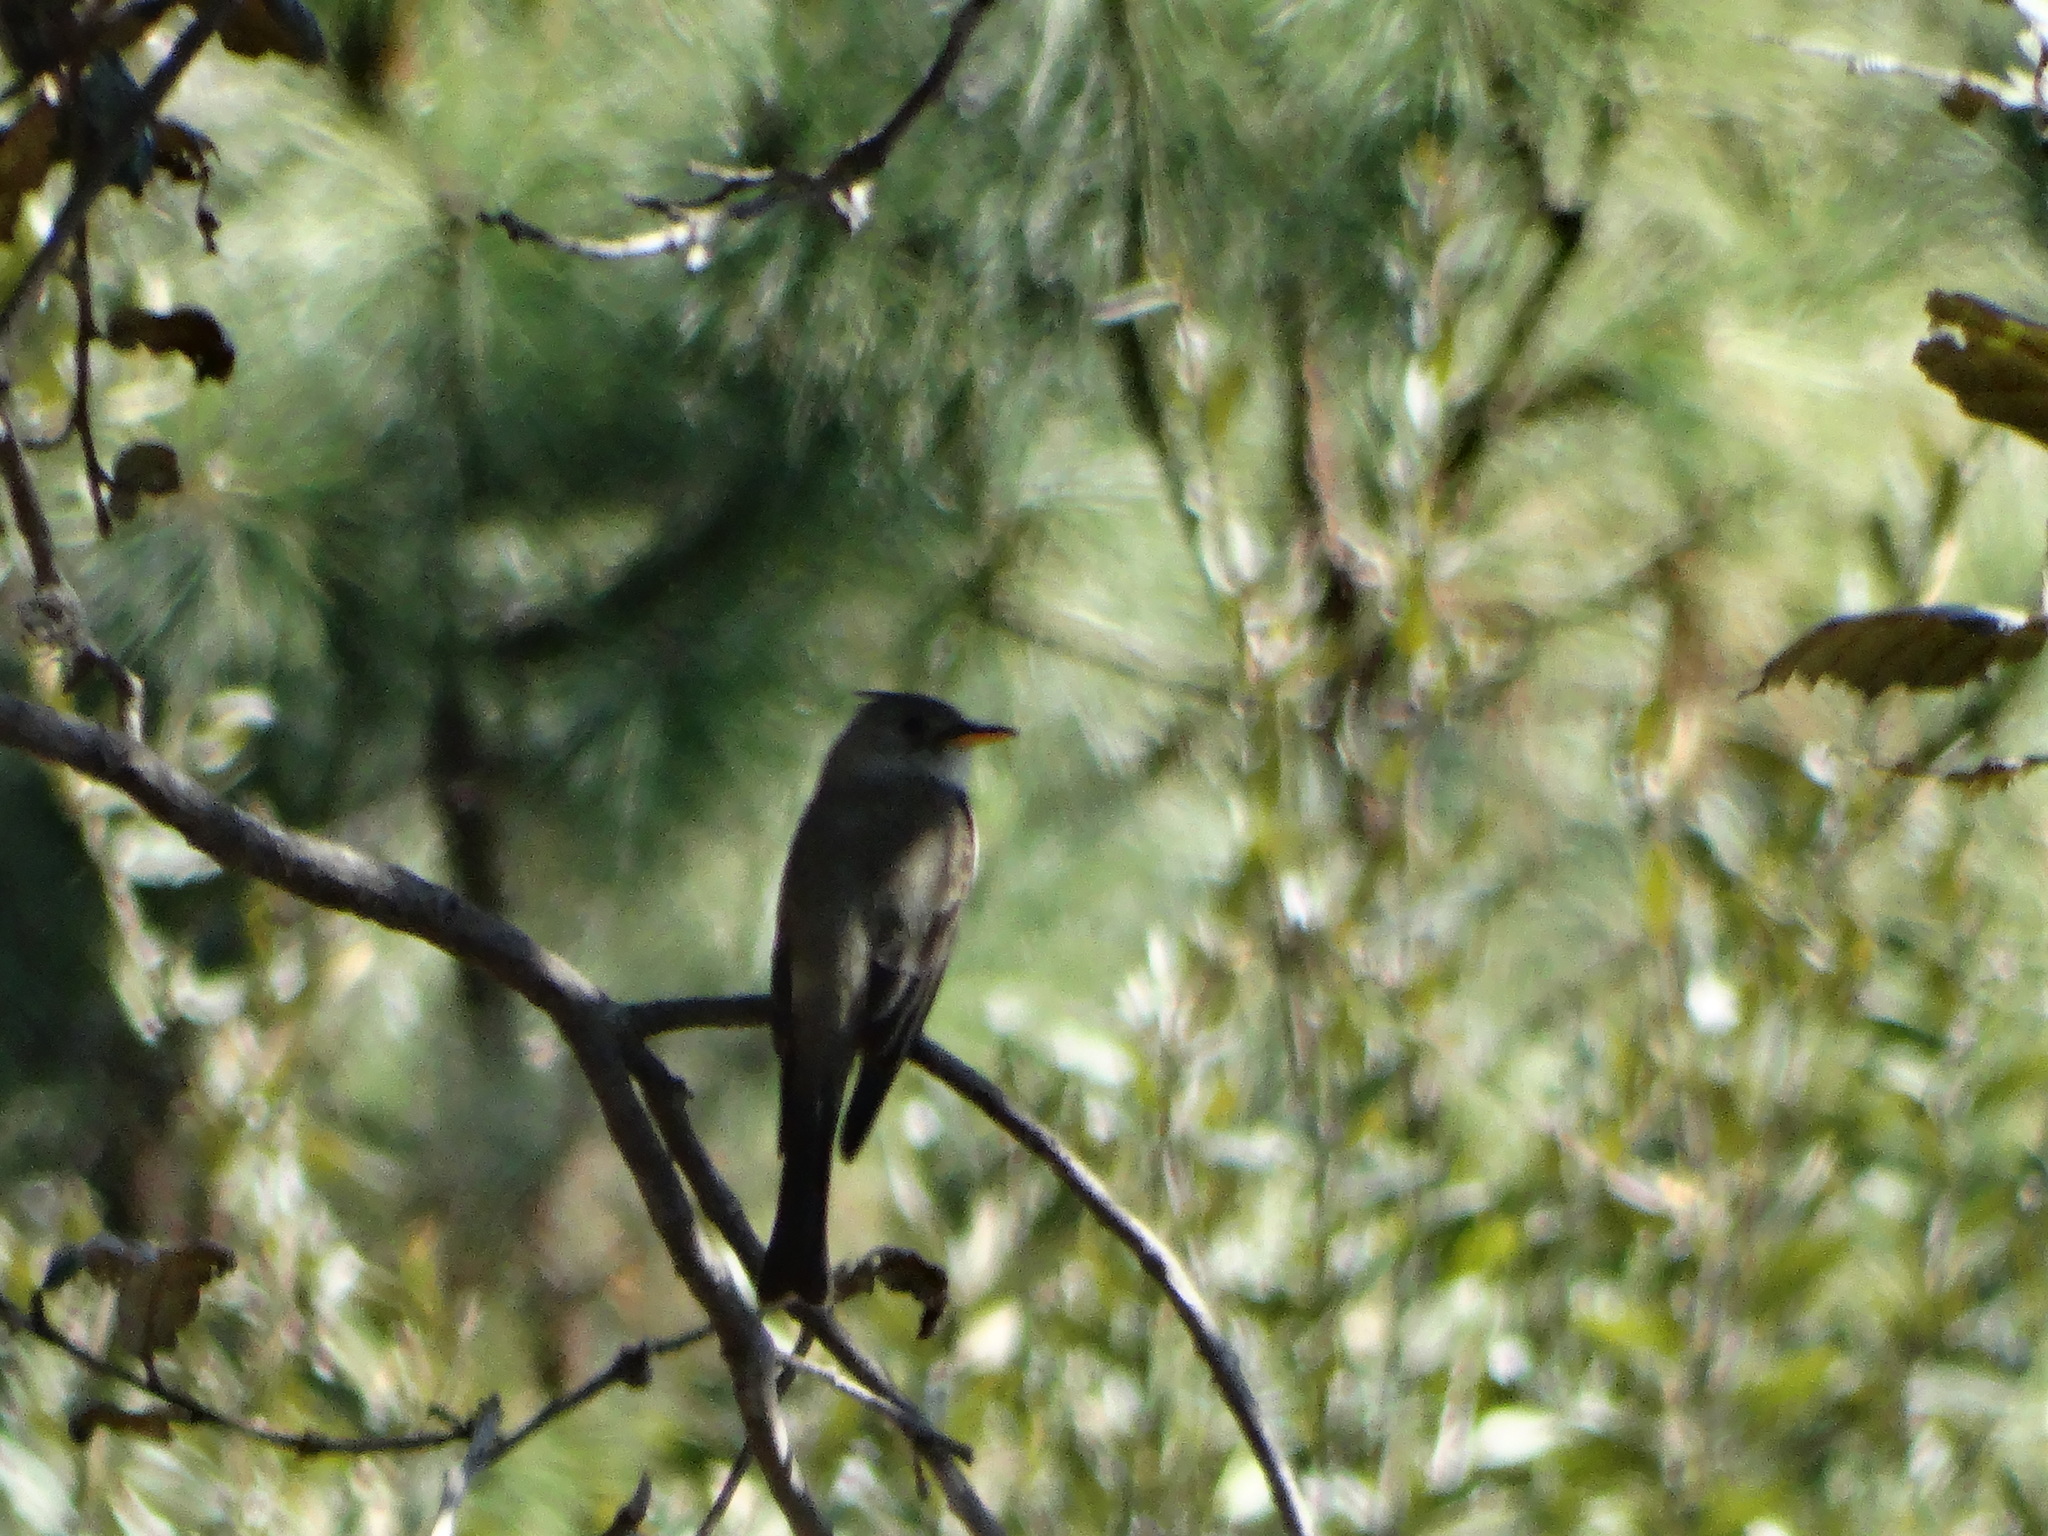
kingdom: Animalia
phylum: Chordata
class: Aves
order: Passeriformes
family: Tyrannidae
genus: Contopus
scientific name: Contopus pertinax
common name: Greater pewee
